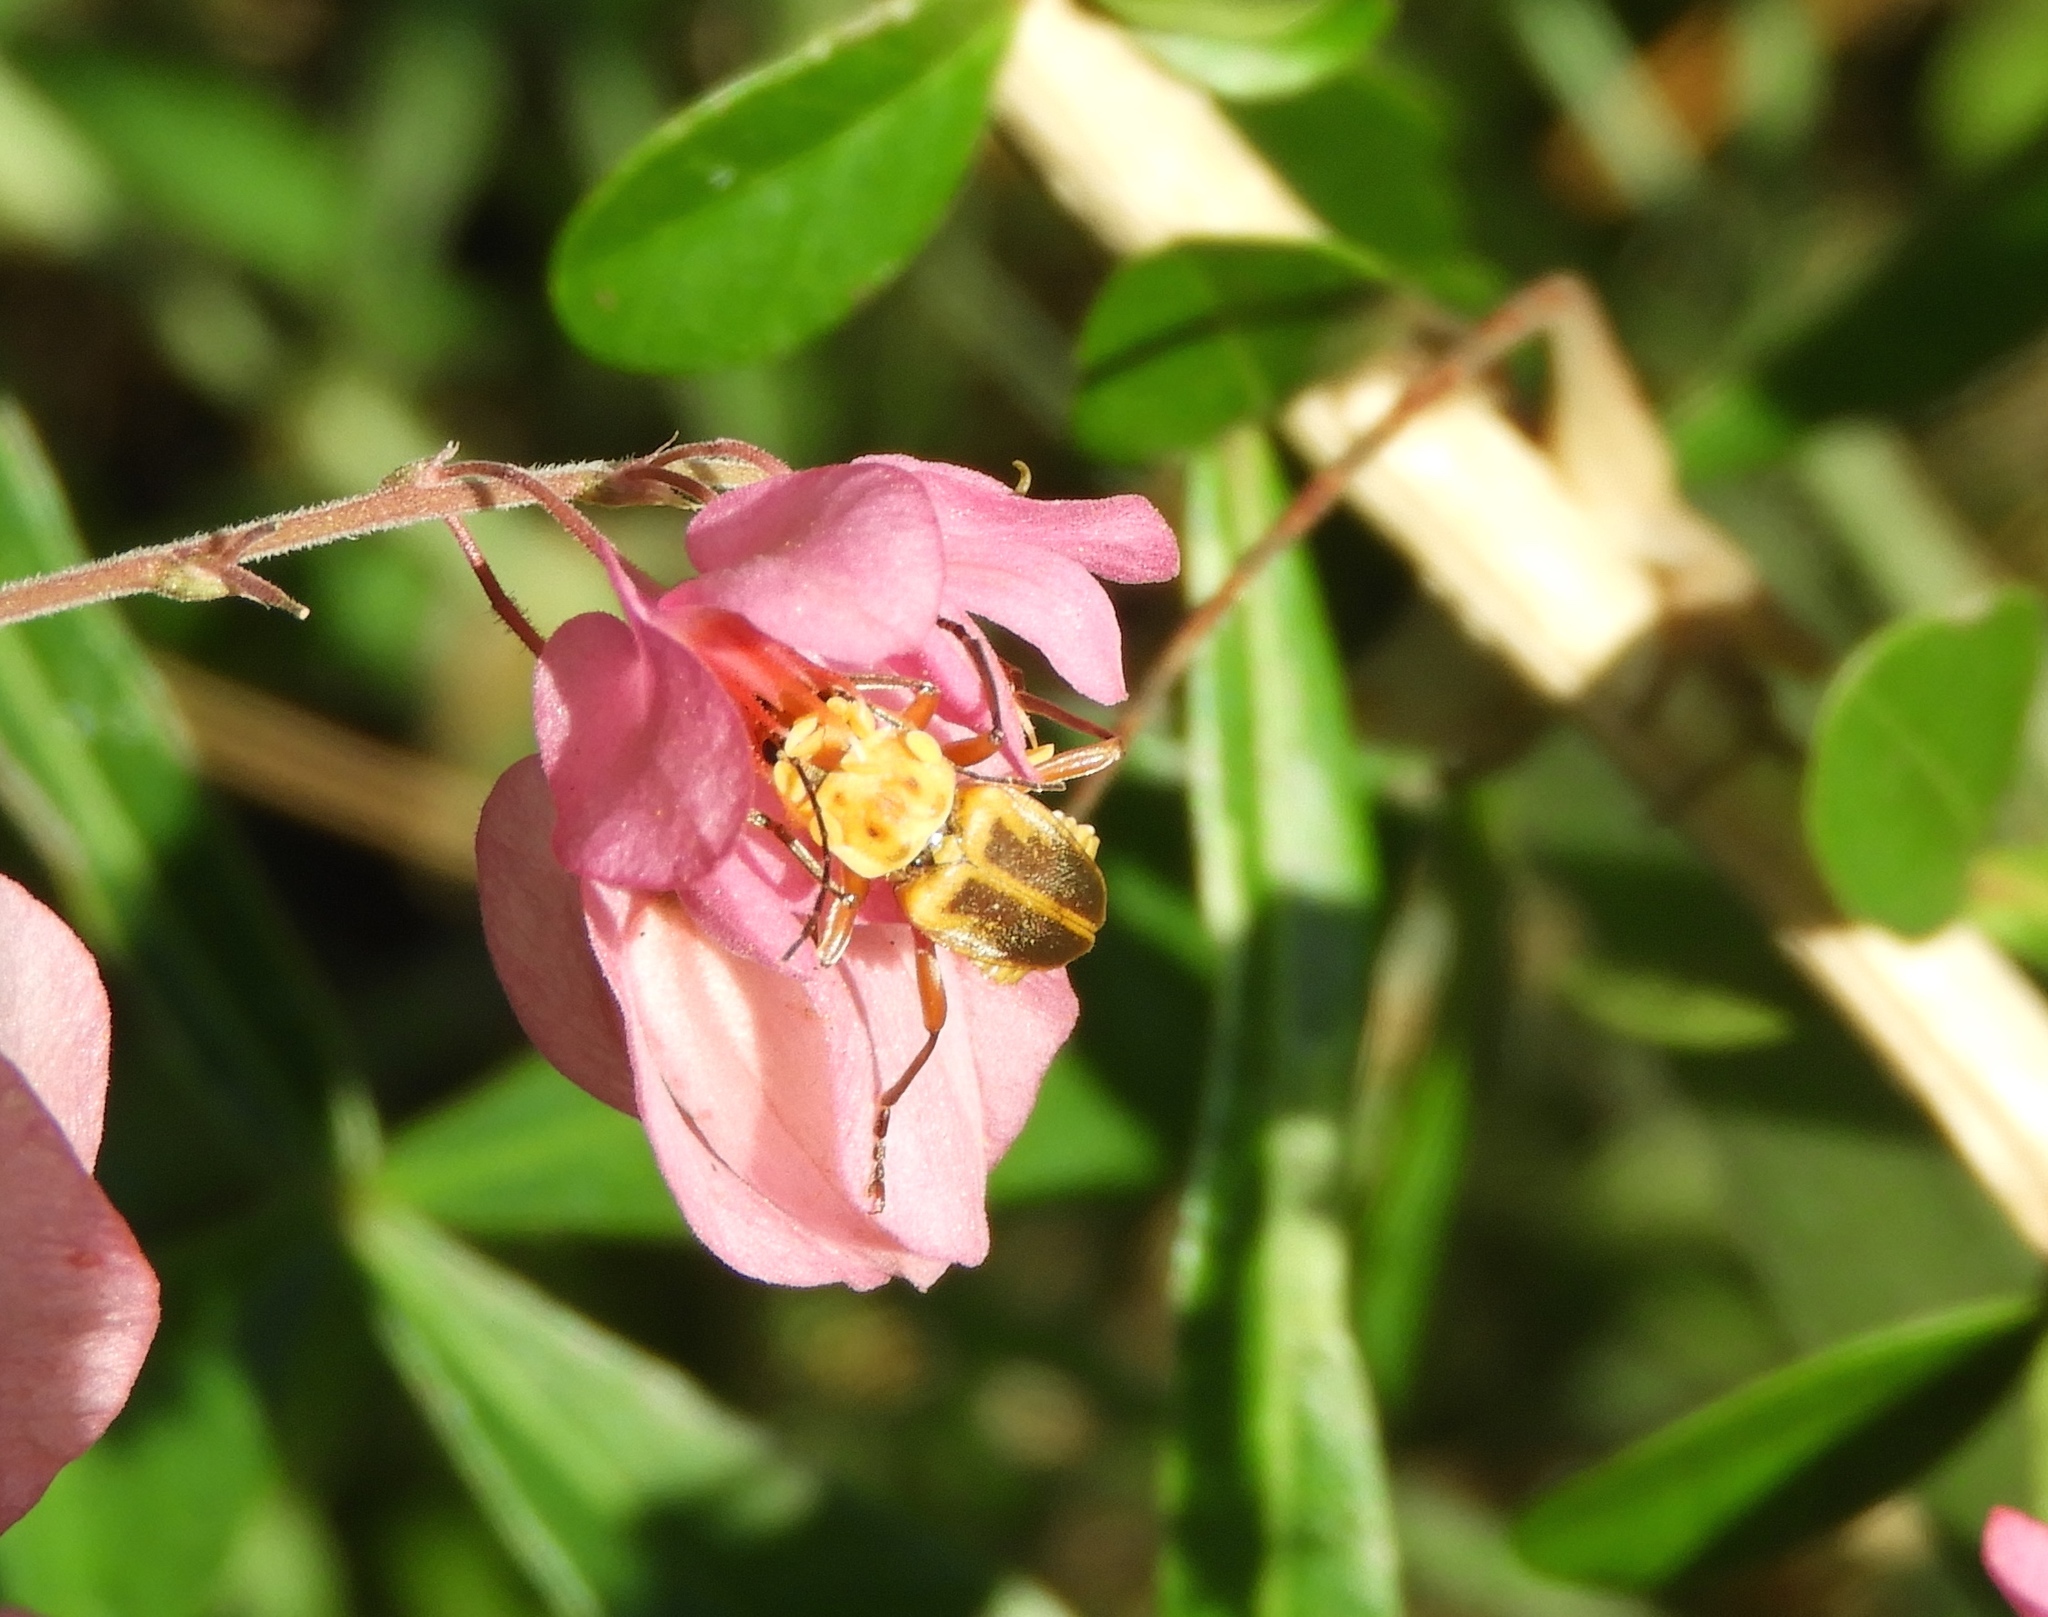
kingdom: Animalia
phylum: Arthropoda
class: Insecta
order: Coleoptera
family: Cantharidae
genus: Chauliognathus
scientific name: Chauliognathus
